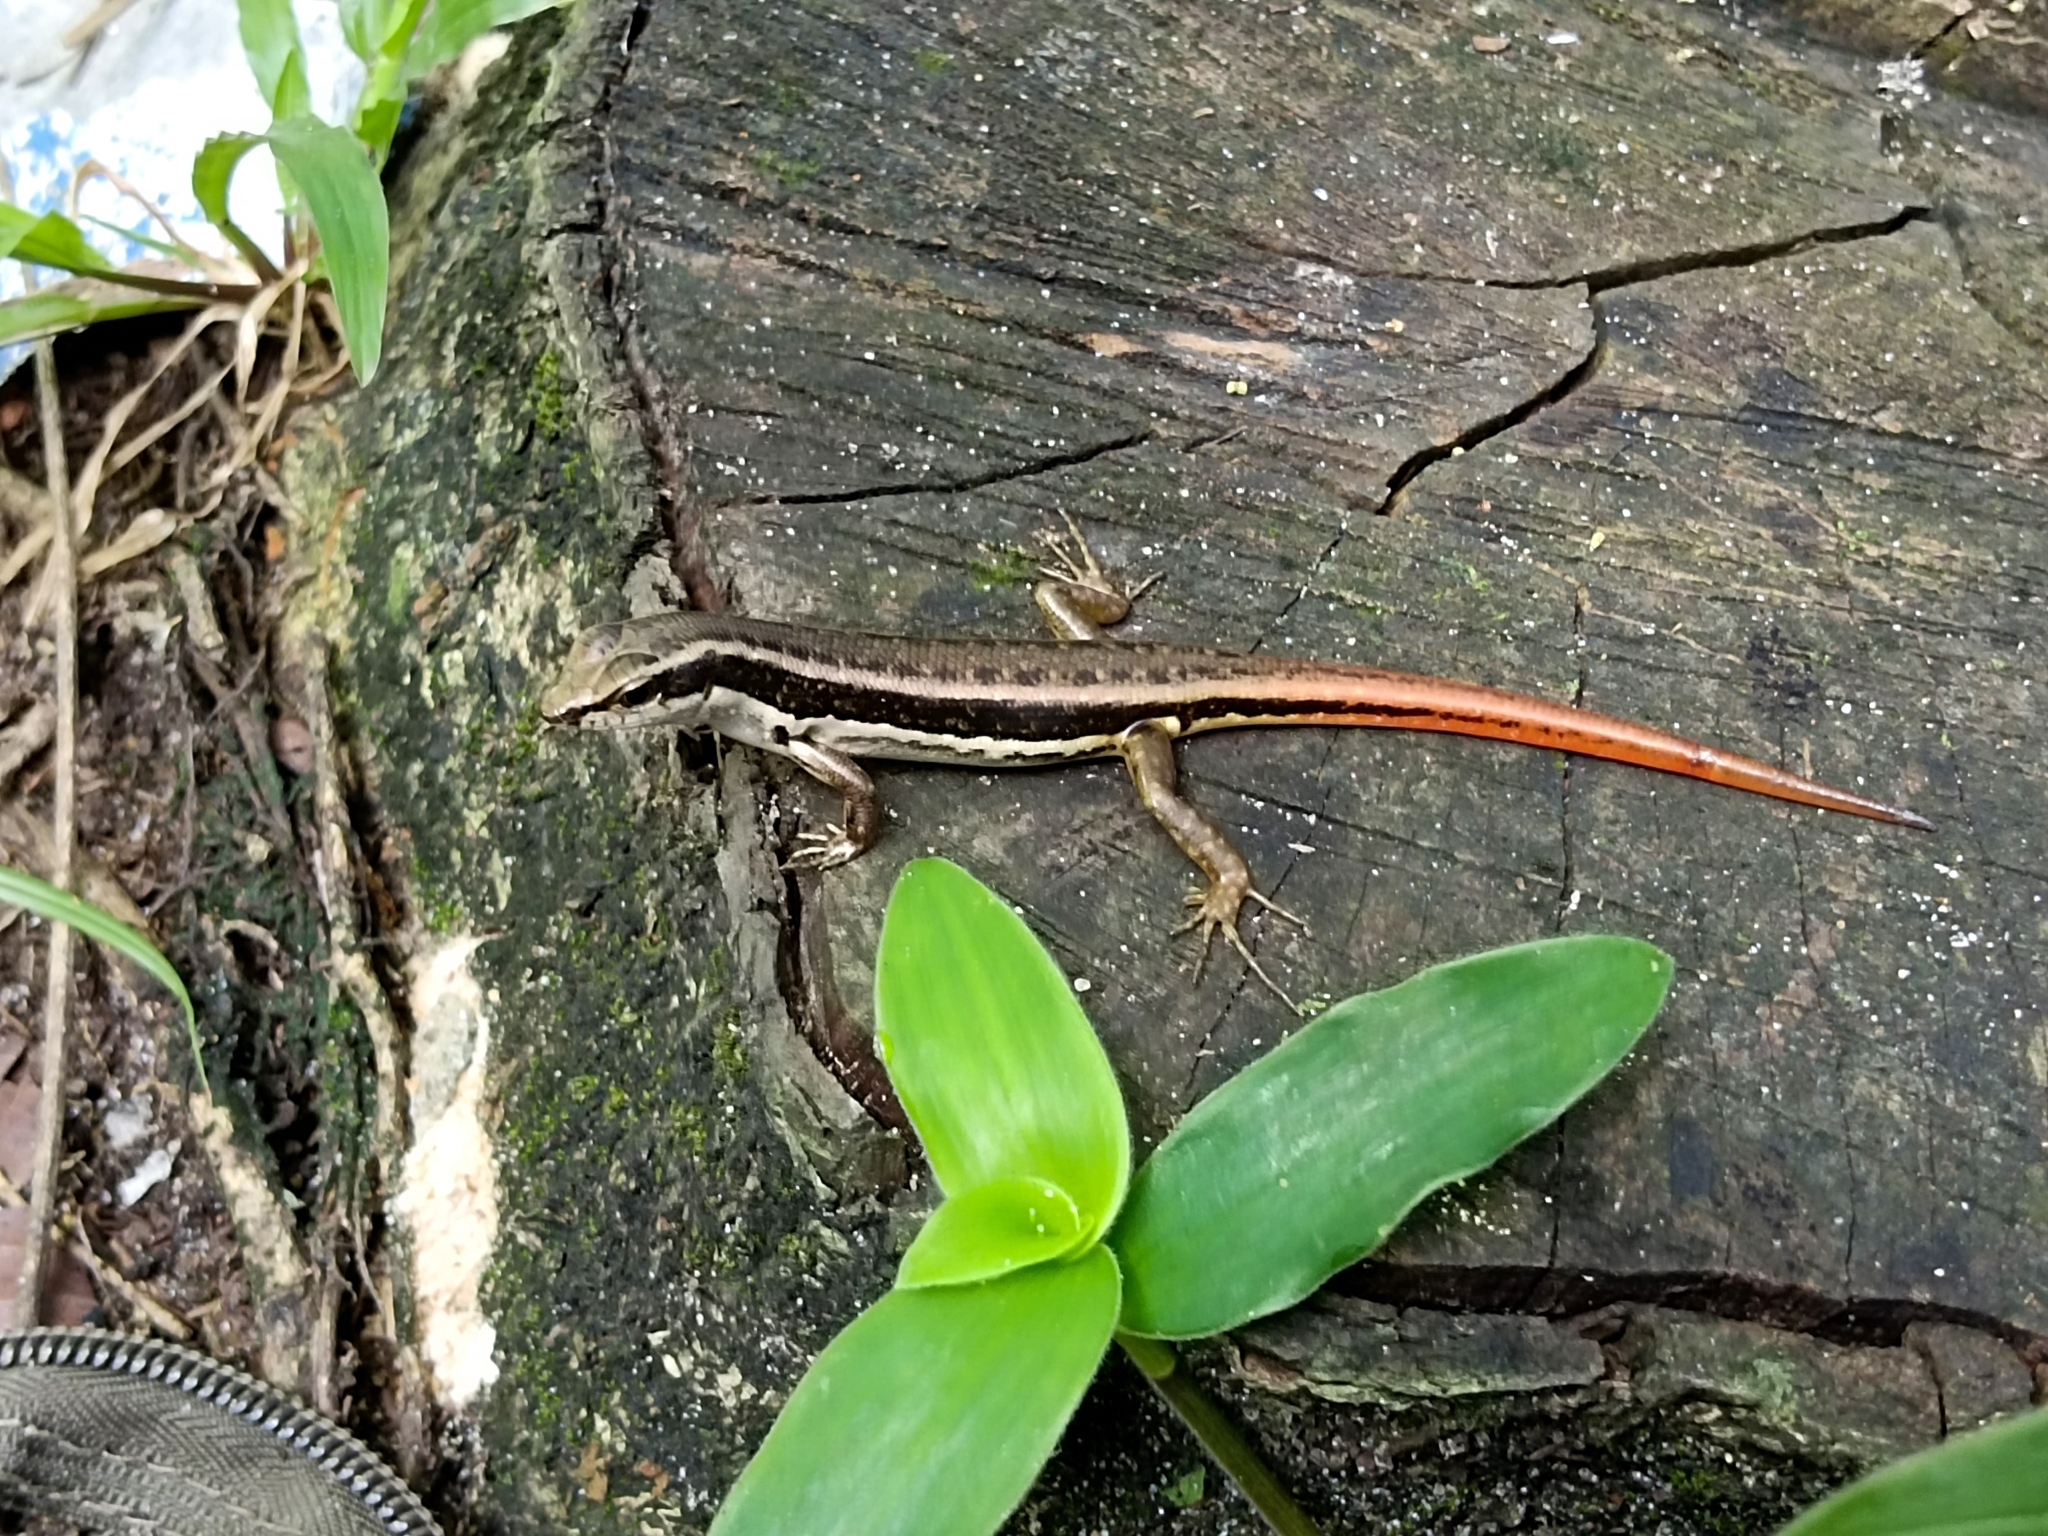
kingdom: Animalia
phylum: Chordata
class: Squamata
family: Scincidae
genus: Sphenomorphus
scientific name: Sphenomorphus dussumieri
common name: Dussumier's forest skink
